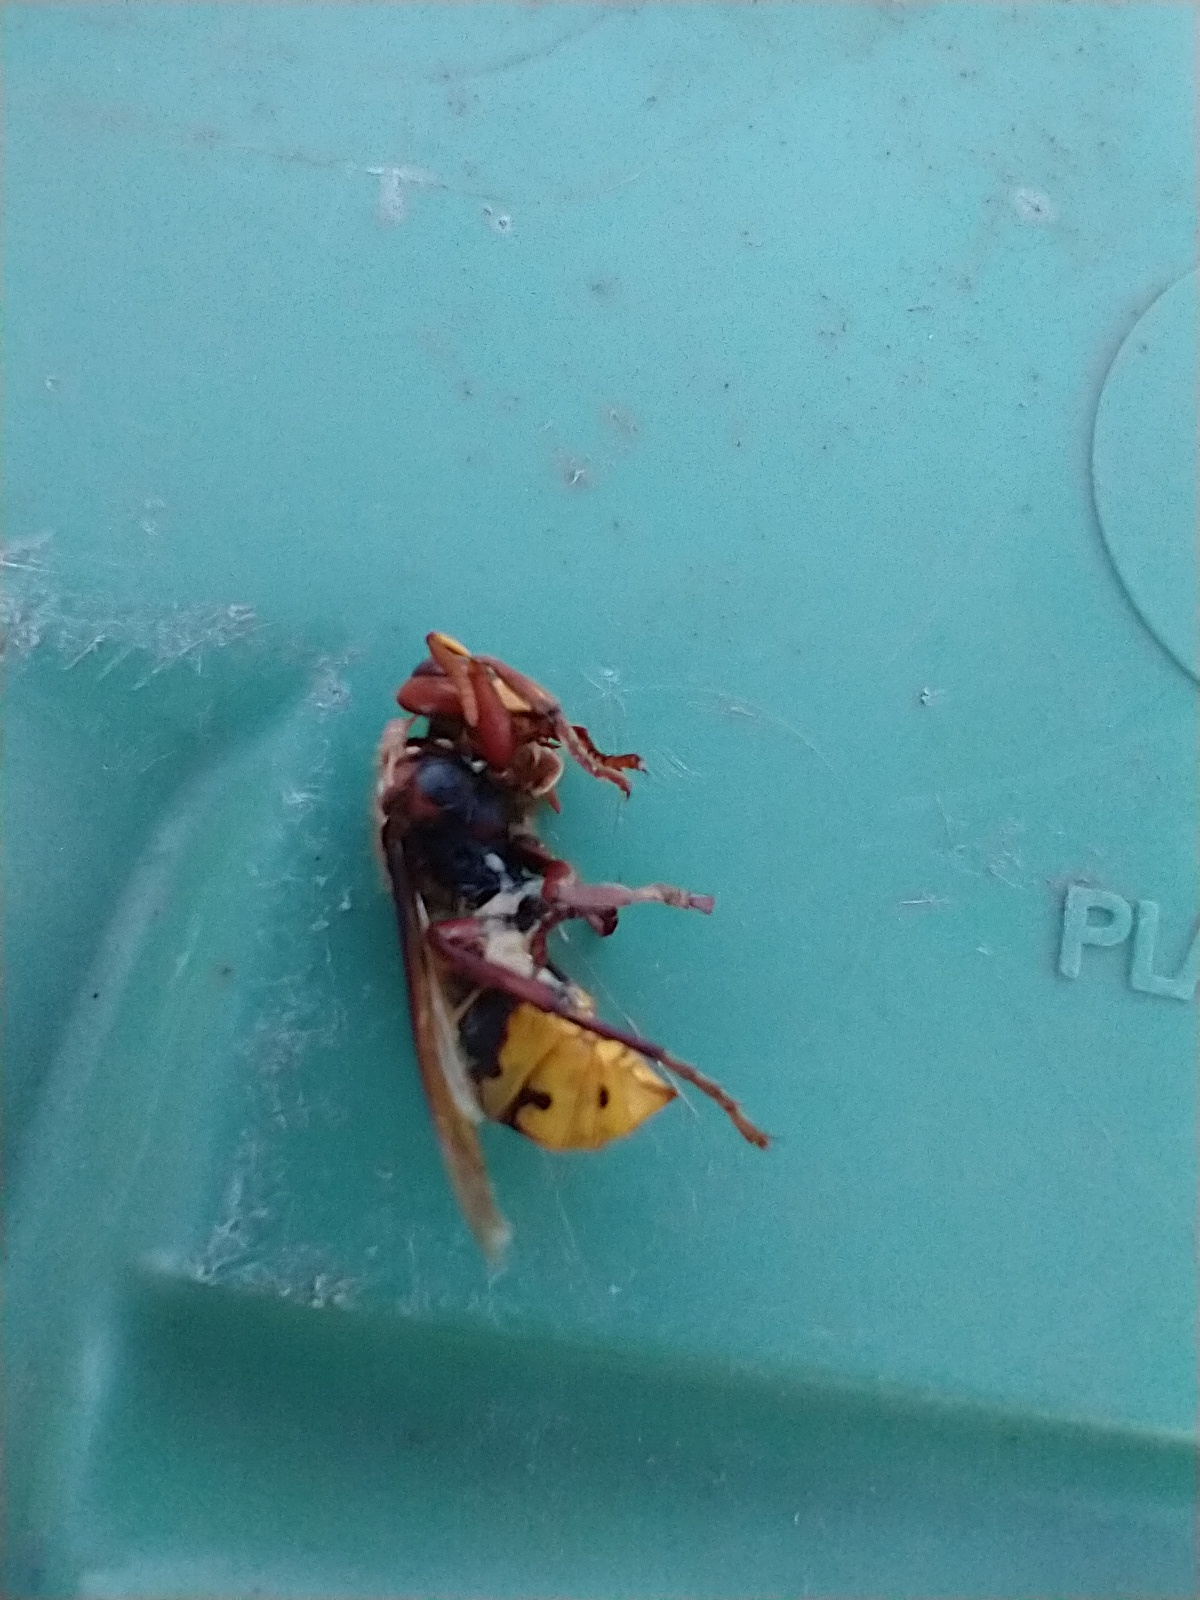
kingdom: Animalia
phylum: Arthropoda
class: Insecta
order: Hymenoptera
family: Vespidae
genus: Vespa
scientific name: Vespa crabro
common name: Hornet
